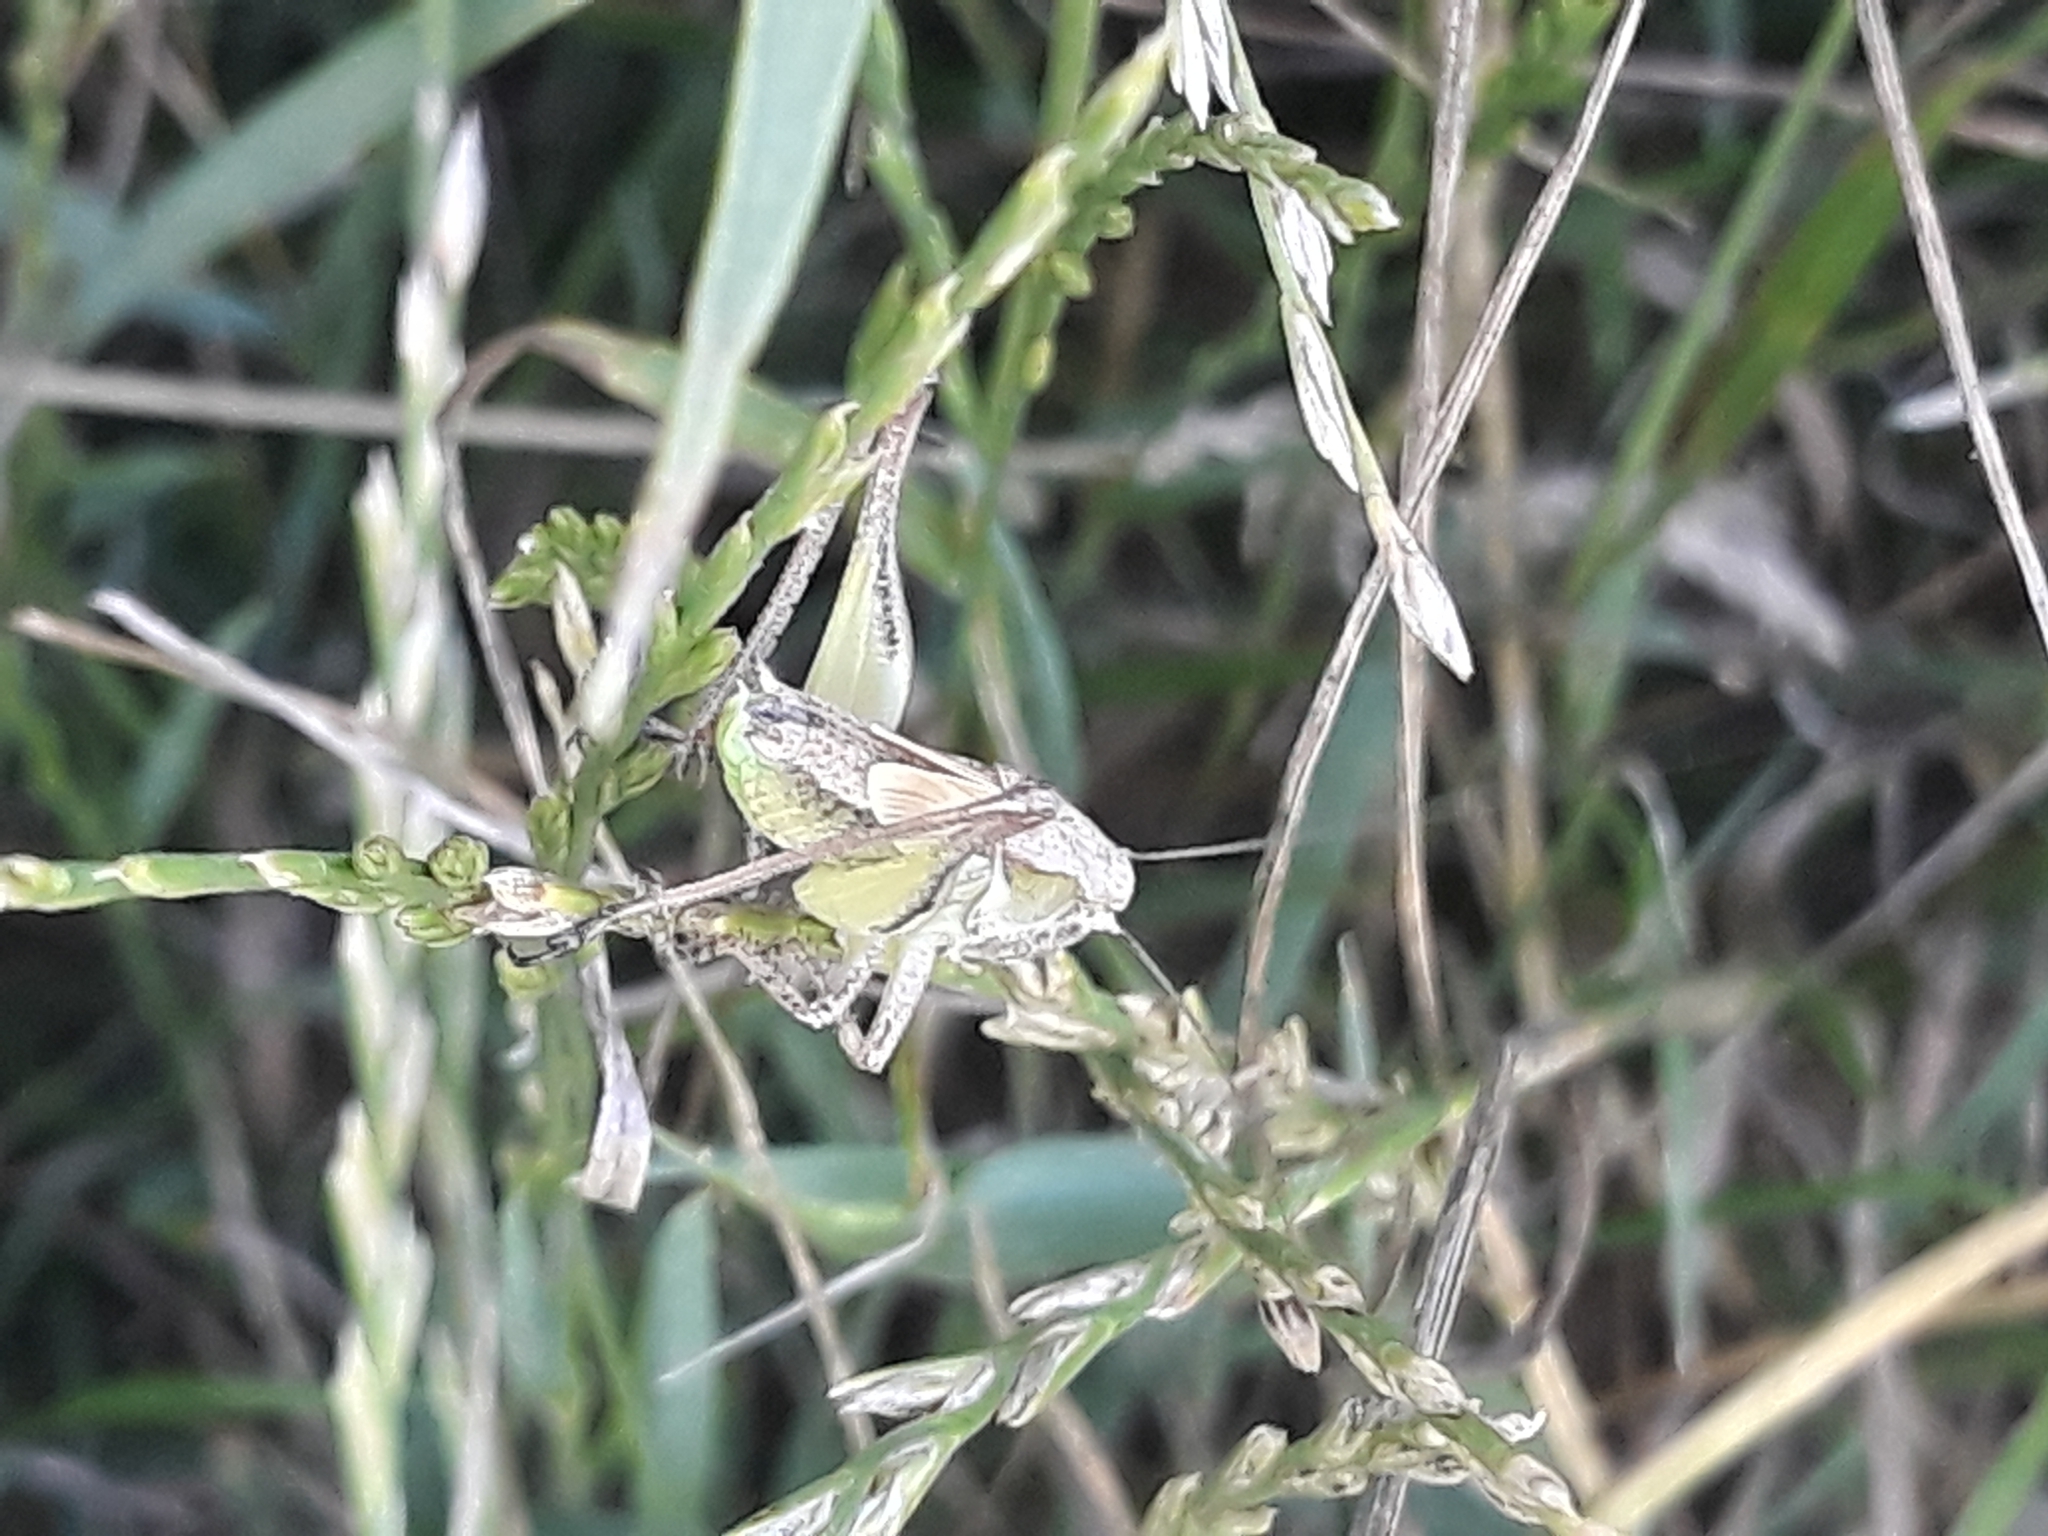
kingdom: Animalia
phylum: Arthropoda
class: Insecta
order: Orthoptera
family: Tettigoniidae
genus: Platycleis
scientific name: Platycleis albopunctata
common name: Grey bush-cricket
